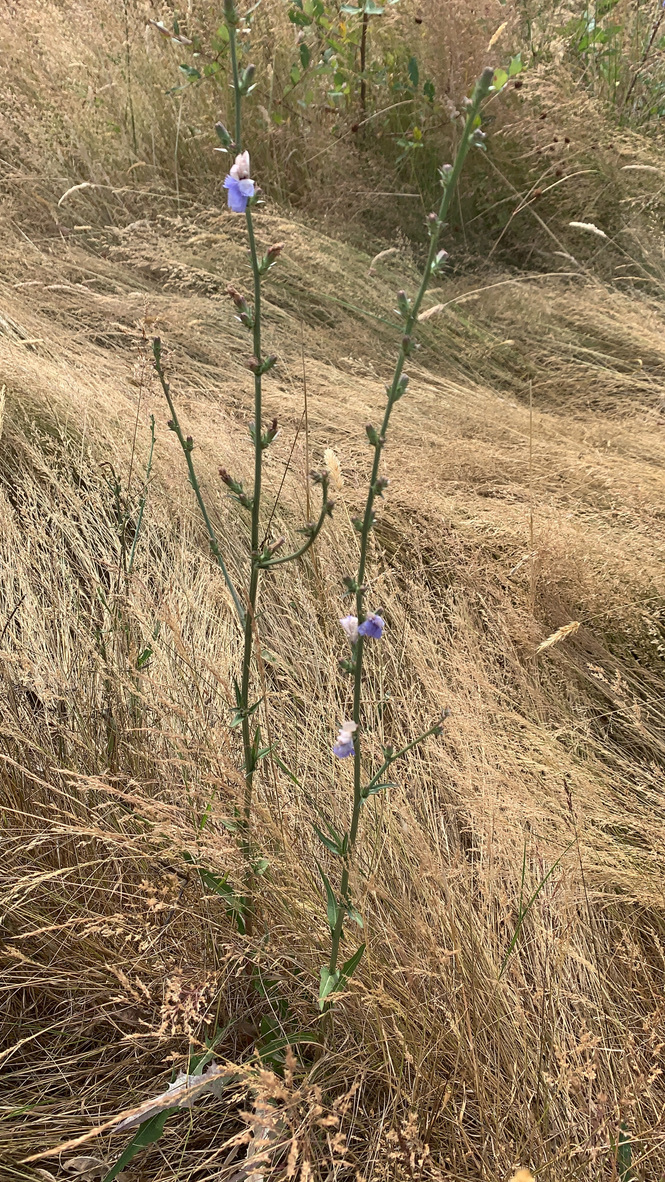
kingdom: Plantae
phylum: Tracheophyta
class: Magnoliopsida
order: Asterales
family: Asteraceae
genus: Cichorium
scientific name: Cichorium intybus
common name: Chicory
